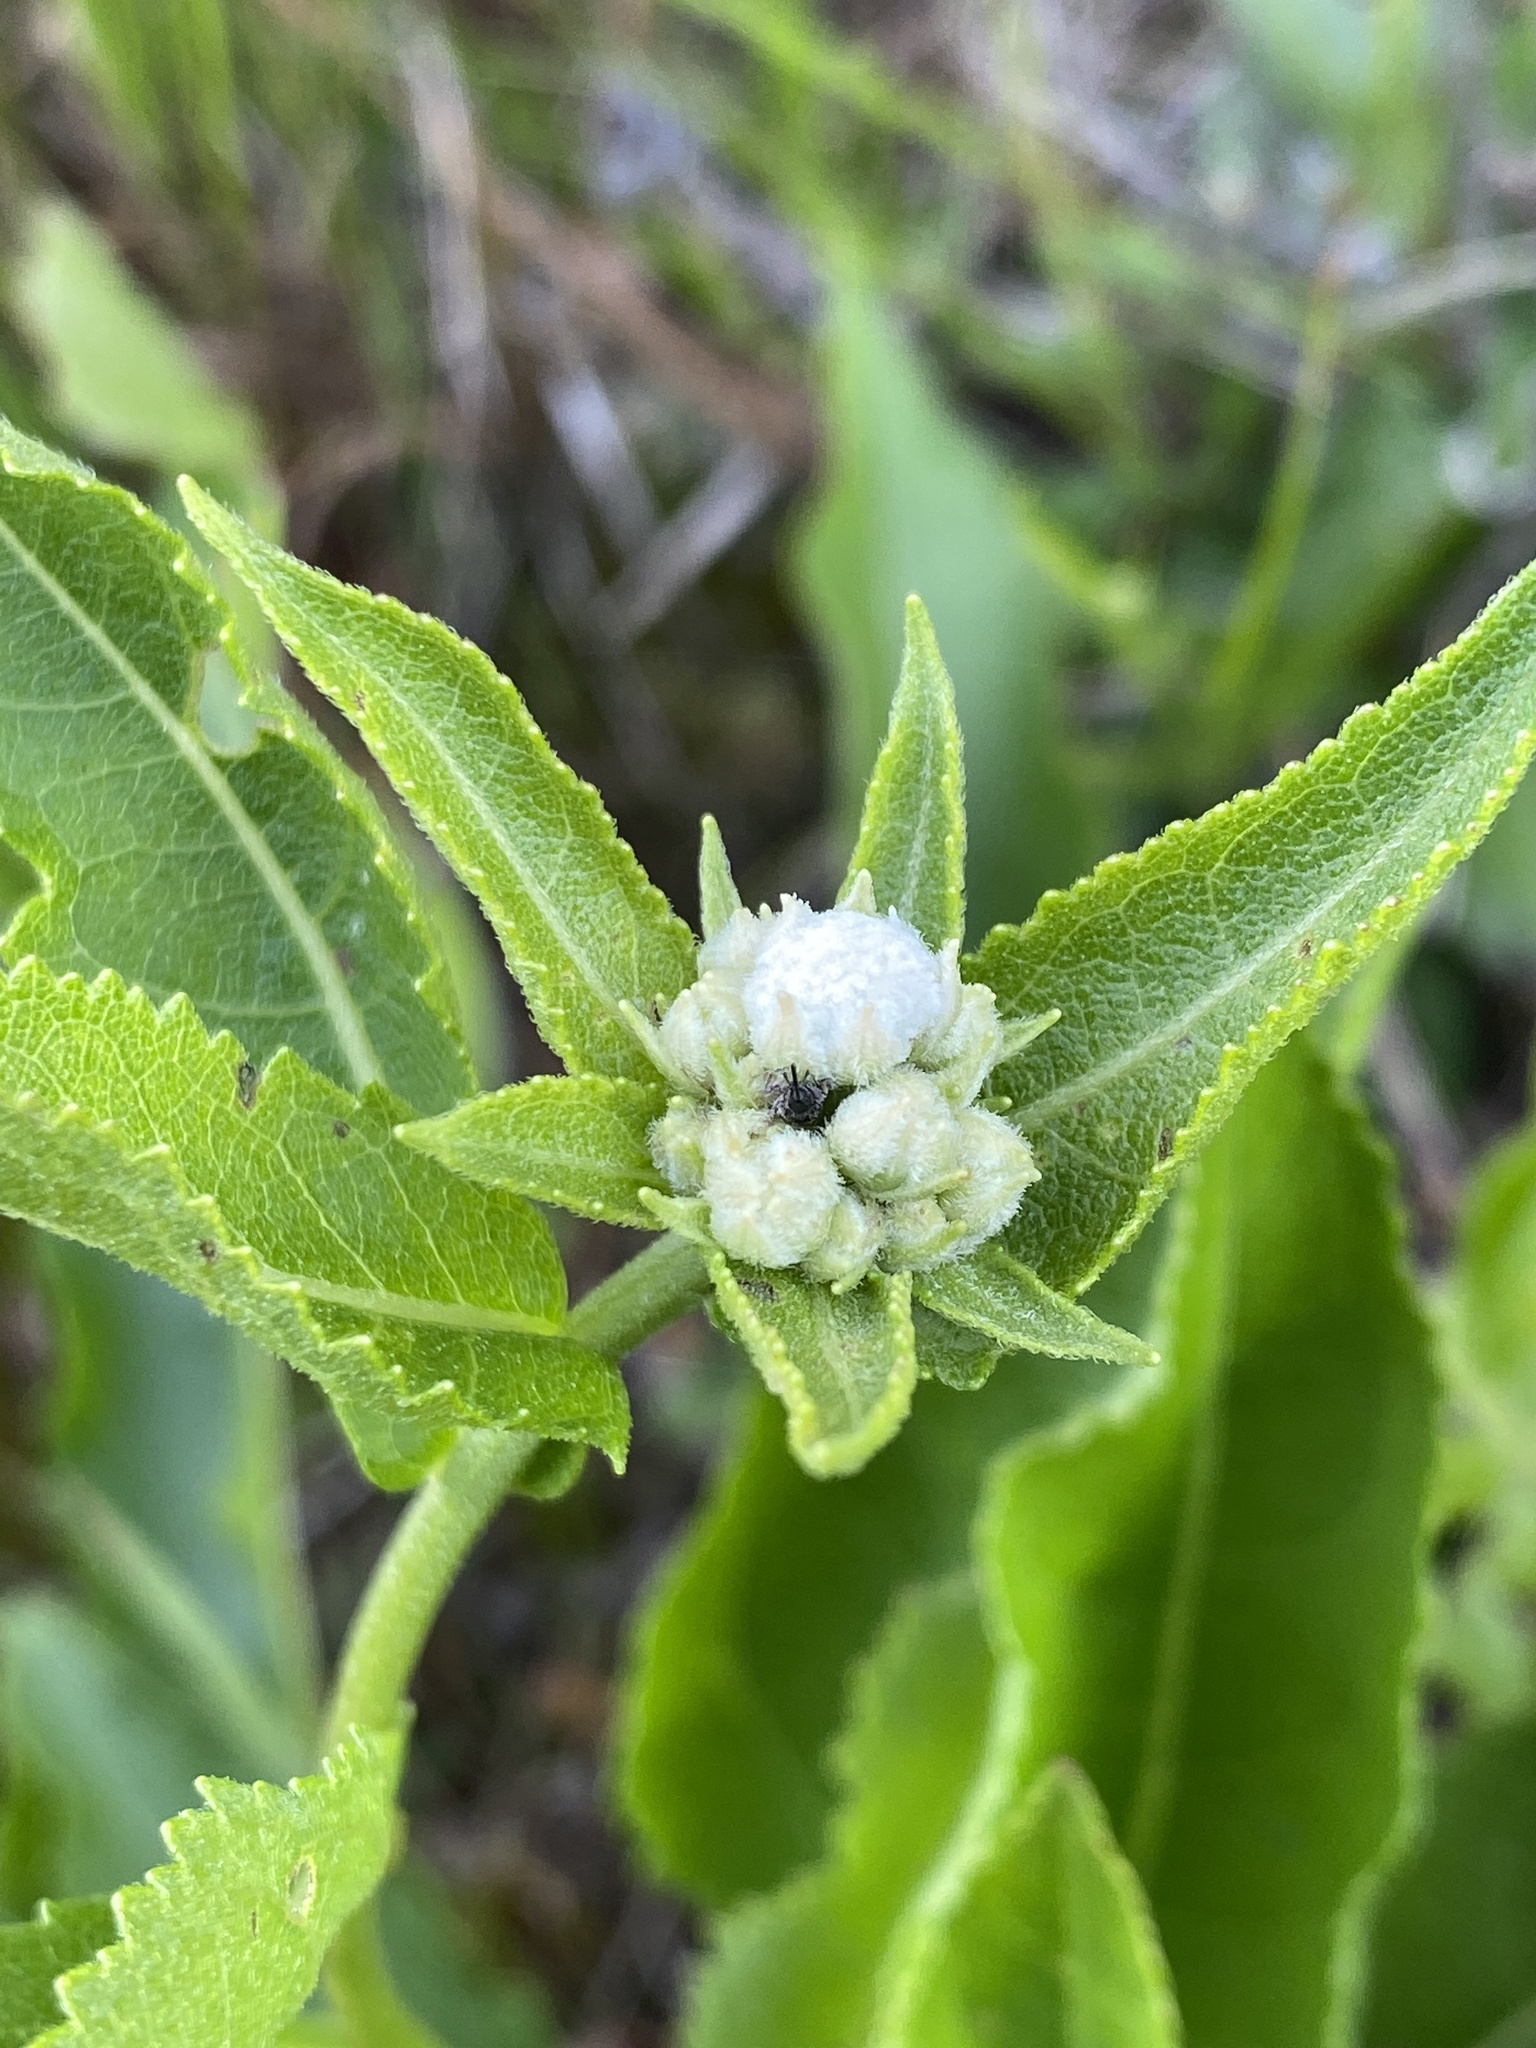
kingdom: Plantae
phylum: Tracheophyta
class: Magnoliopsida
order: Asterales
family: Asteraceae
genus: Parthenium
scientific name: Parthenium integrifolium
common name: American feverfew
